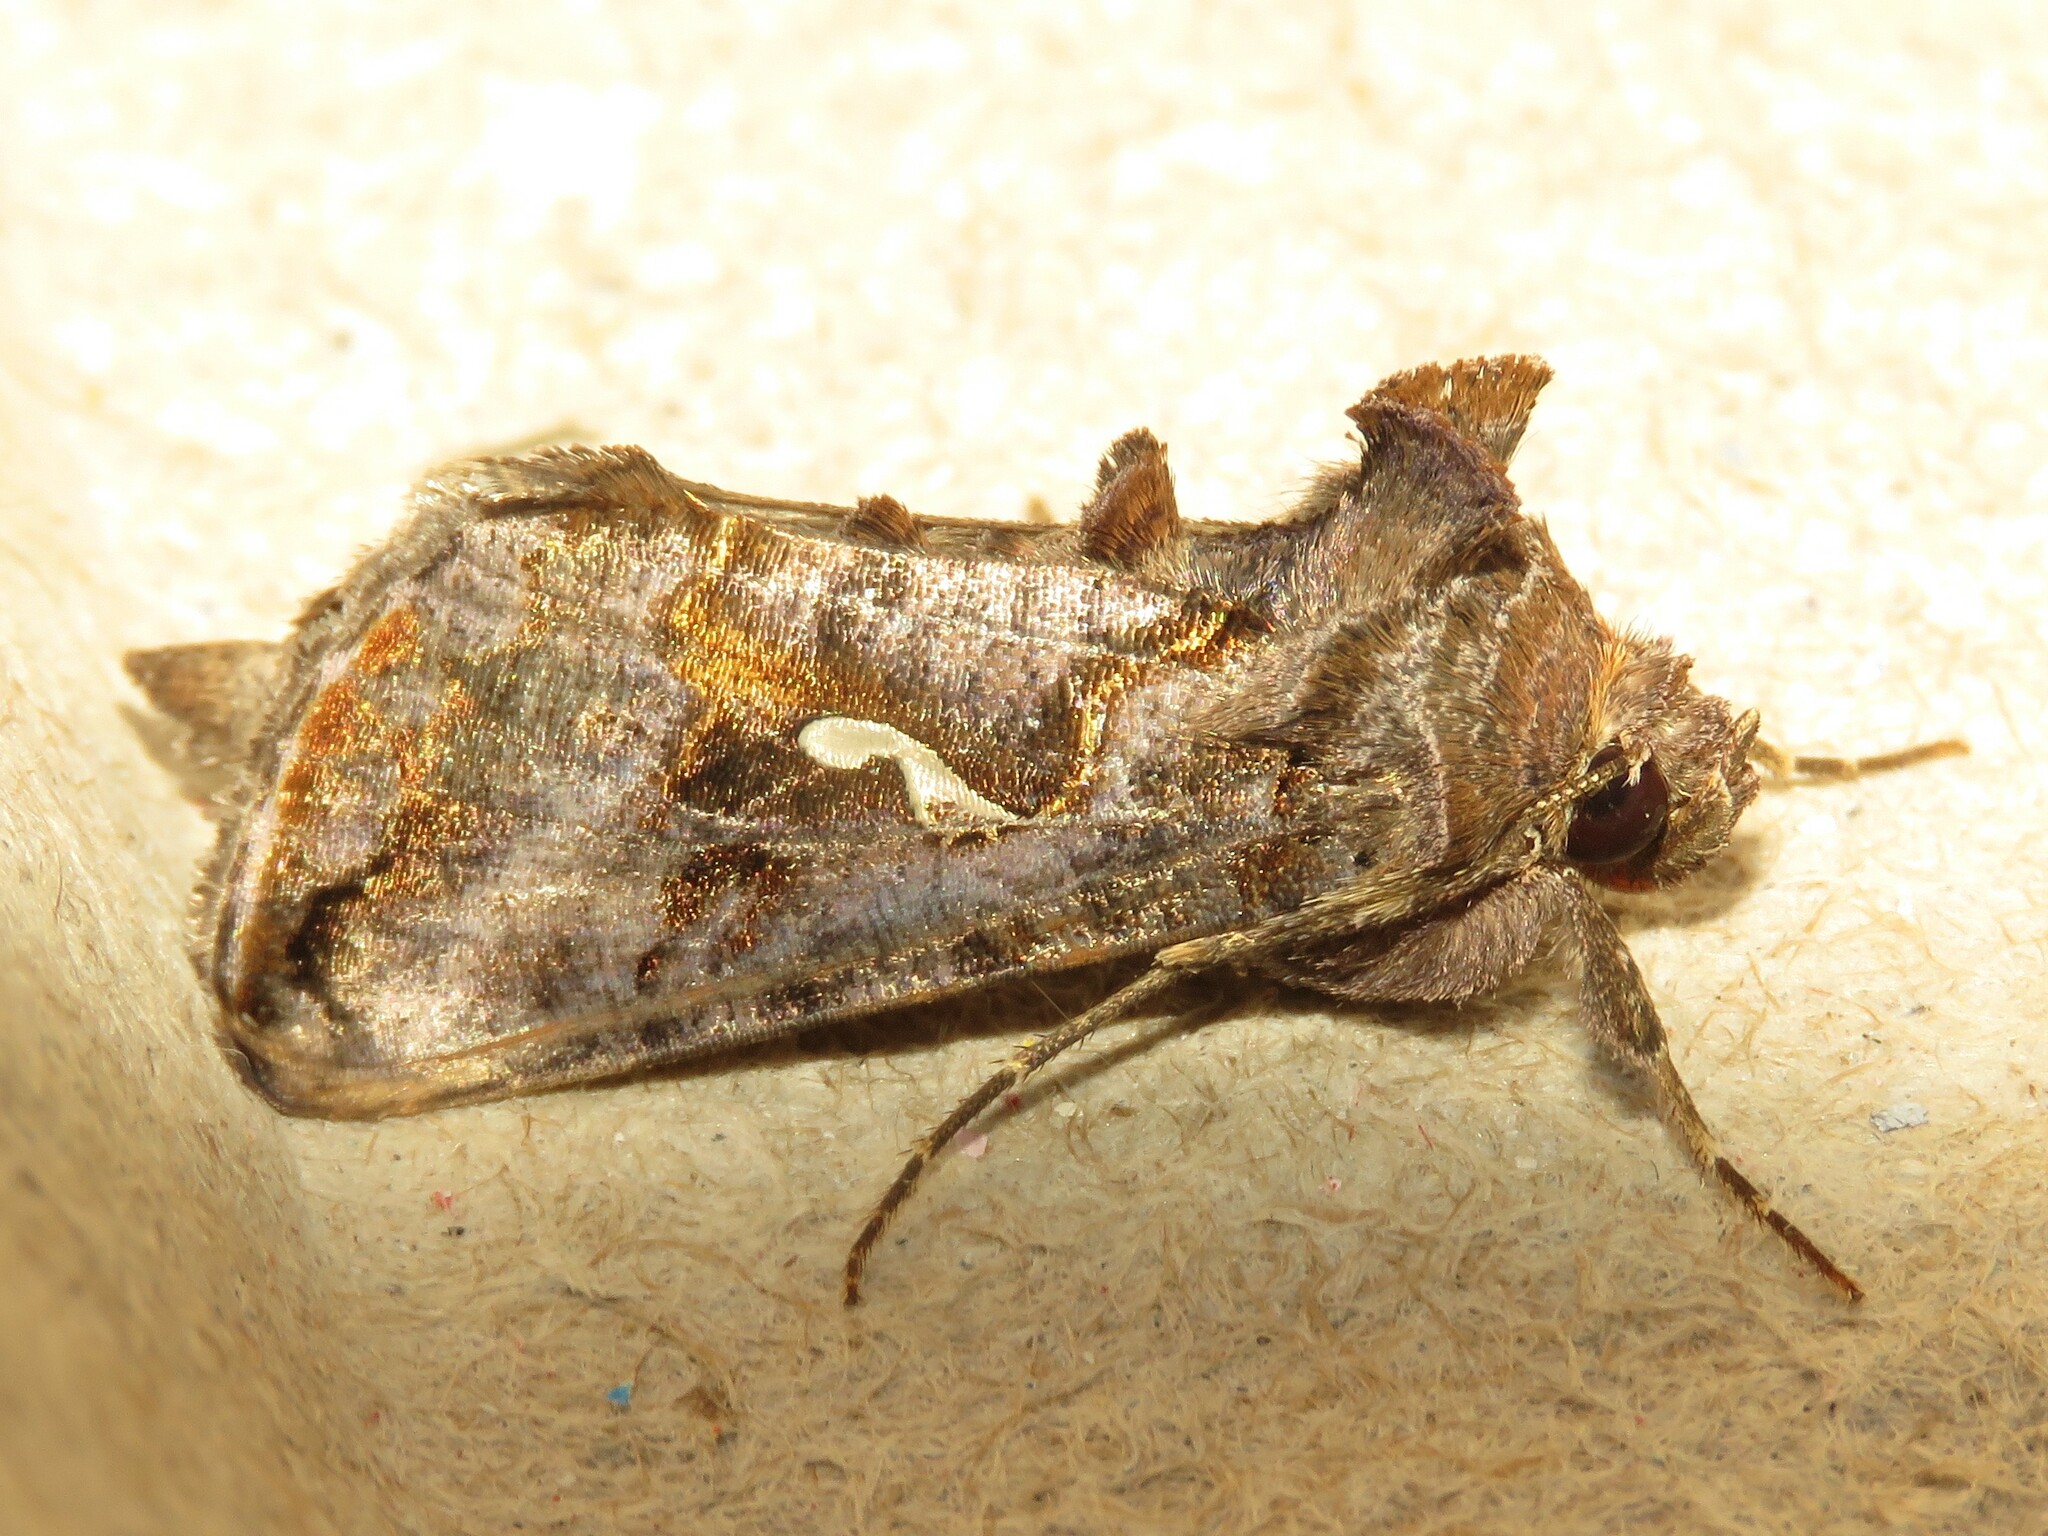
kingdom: Animalia
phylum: Arthropoda
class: Insecta
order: Lepidoptera
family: Noctuidae
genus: Autographa
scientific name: Autographa precationis
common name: Common looper moth
